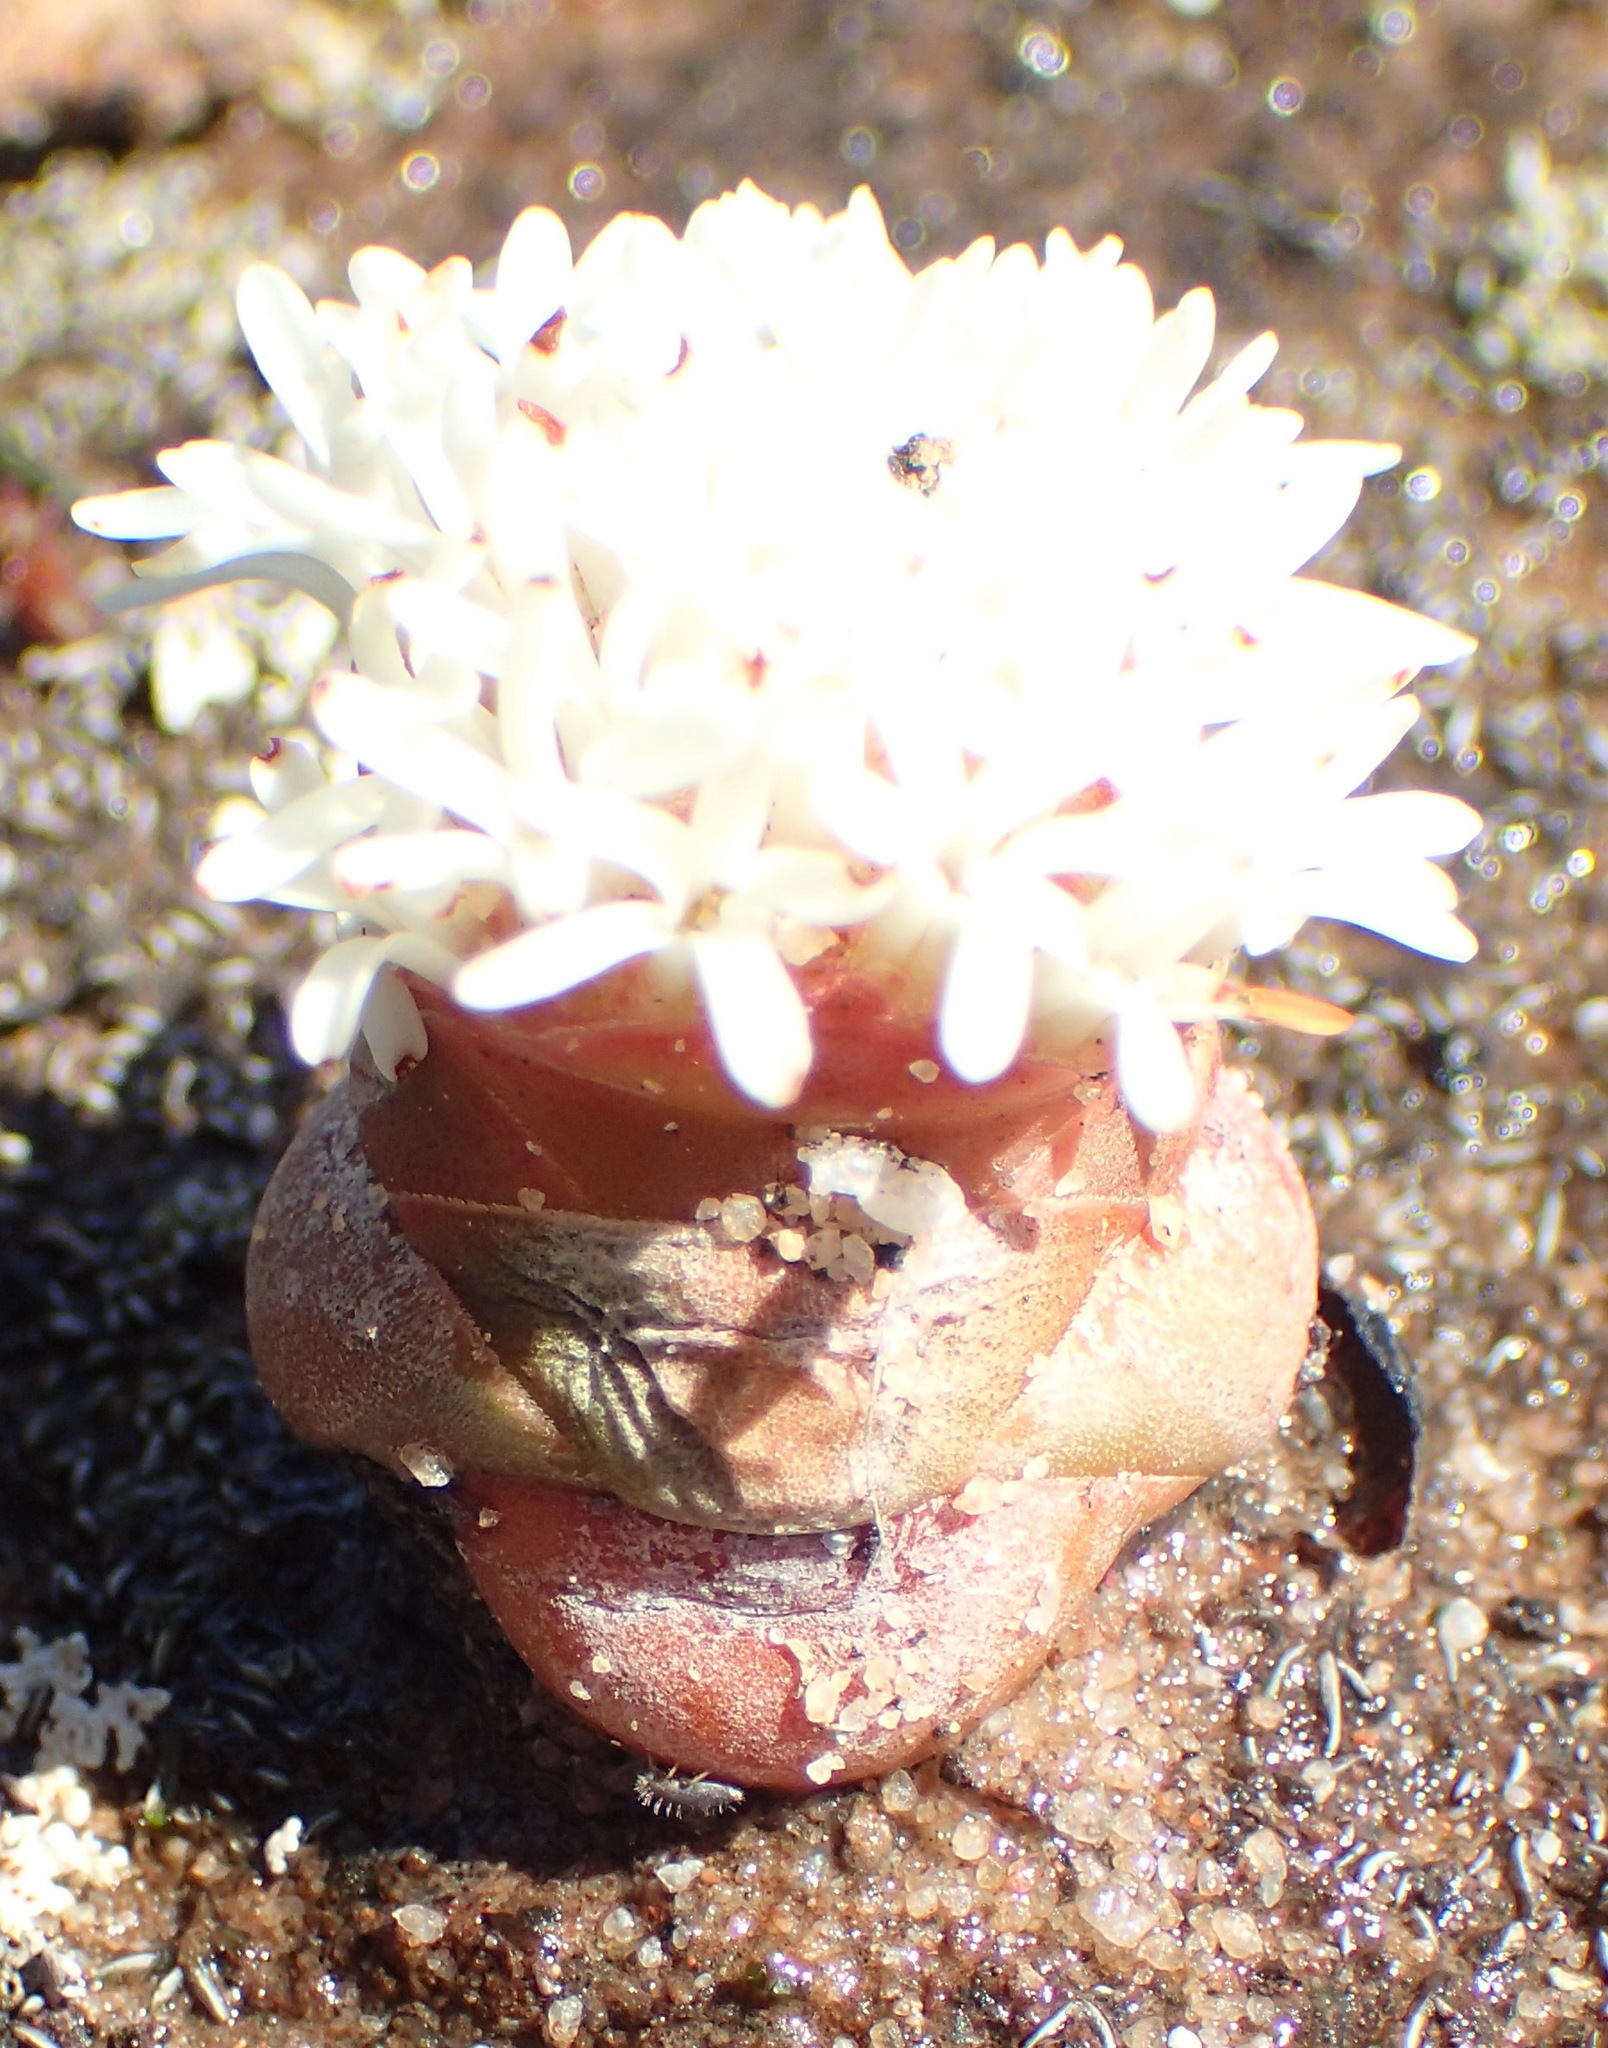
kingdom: Plantae
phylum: Tracheophyta
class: Magnoliopsida
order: Saxifragales
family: Crassulaceae
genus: Crassula
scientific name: Crassula columnaris
